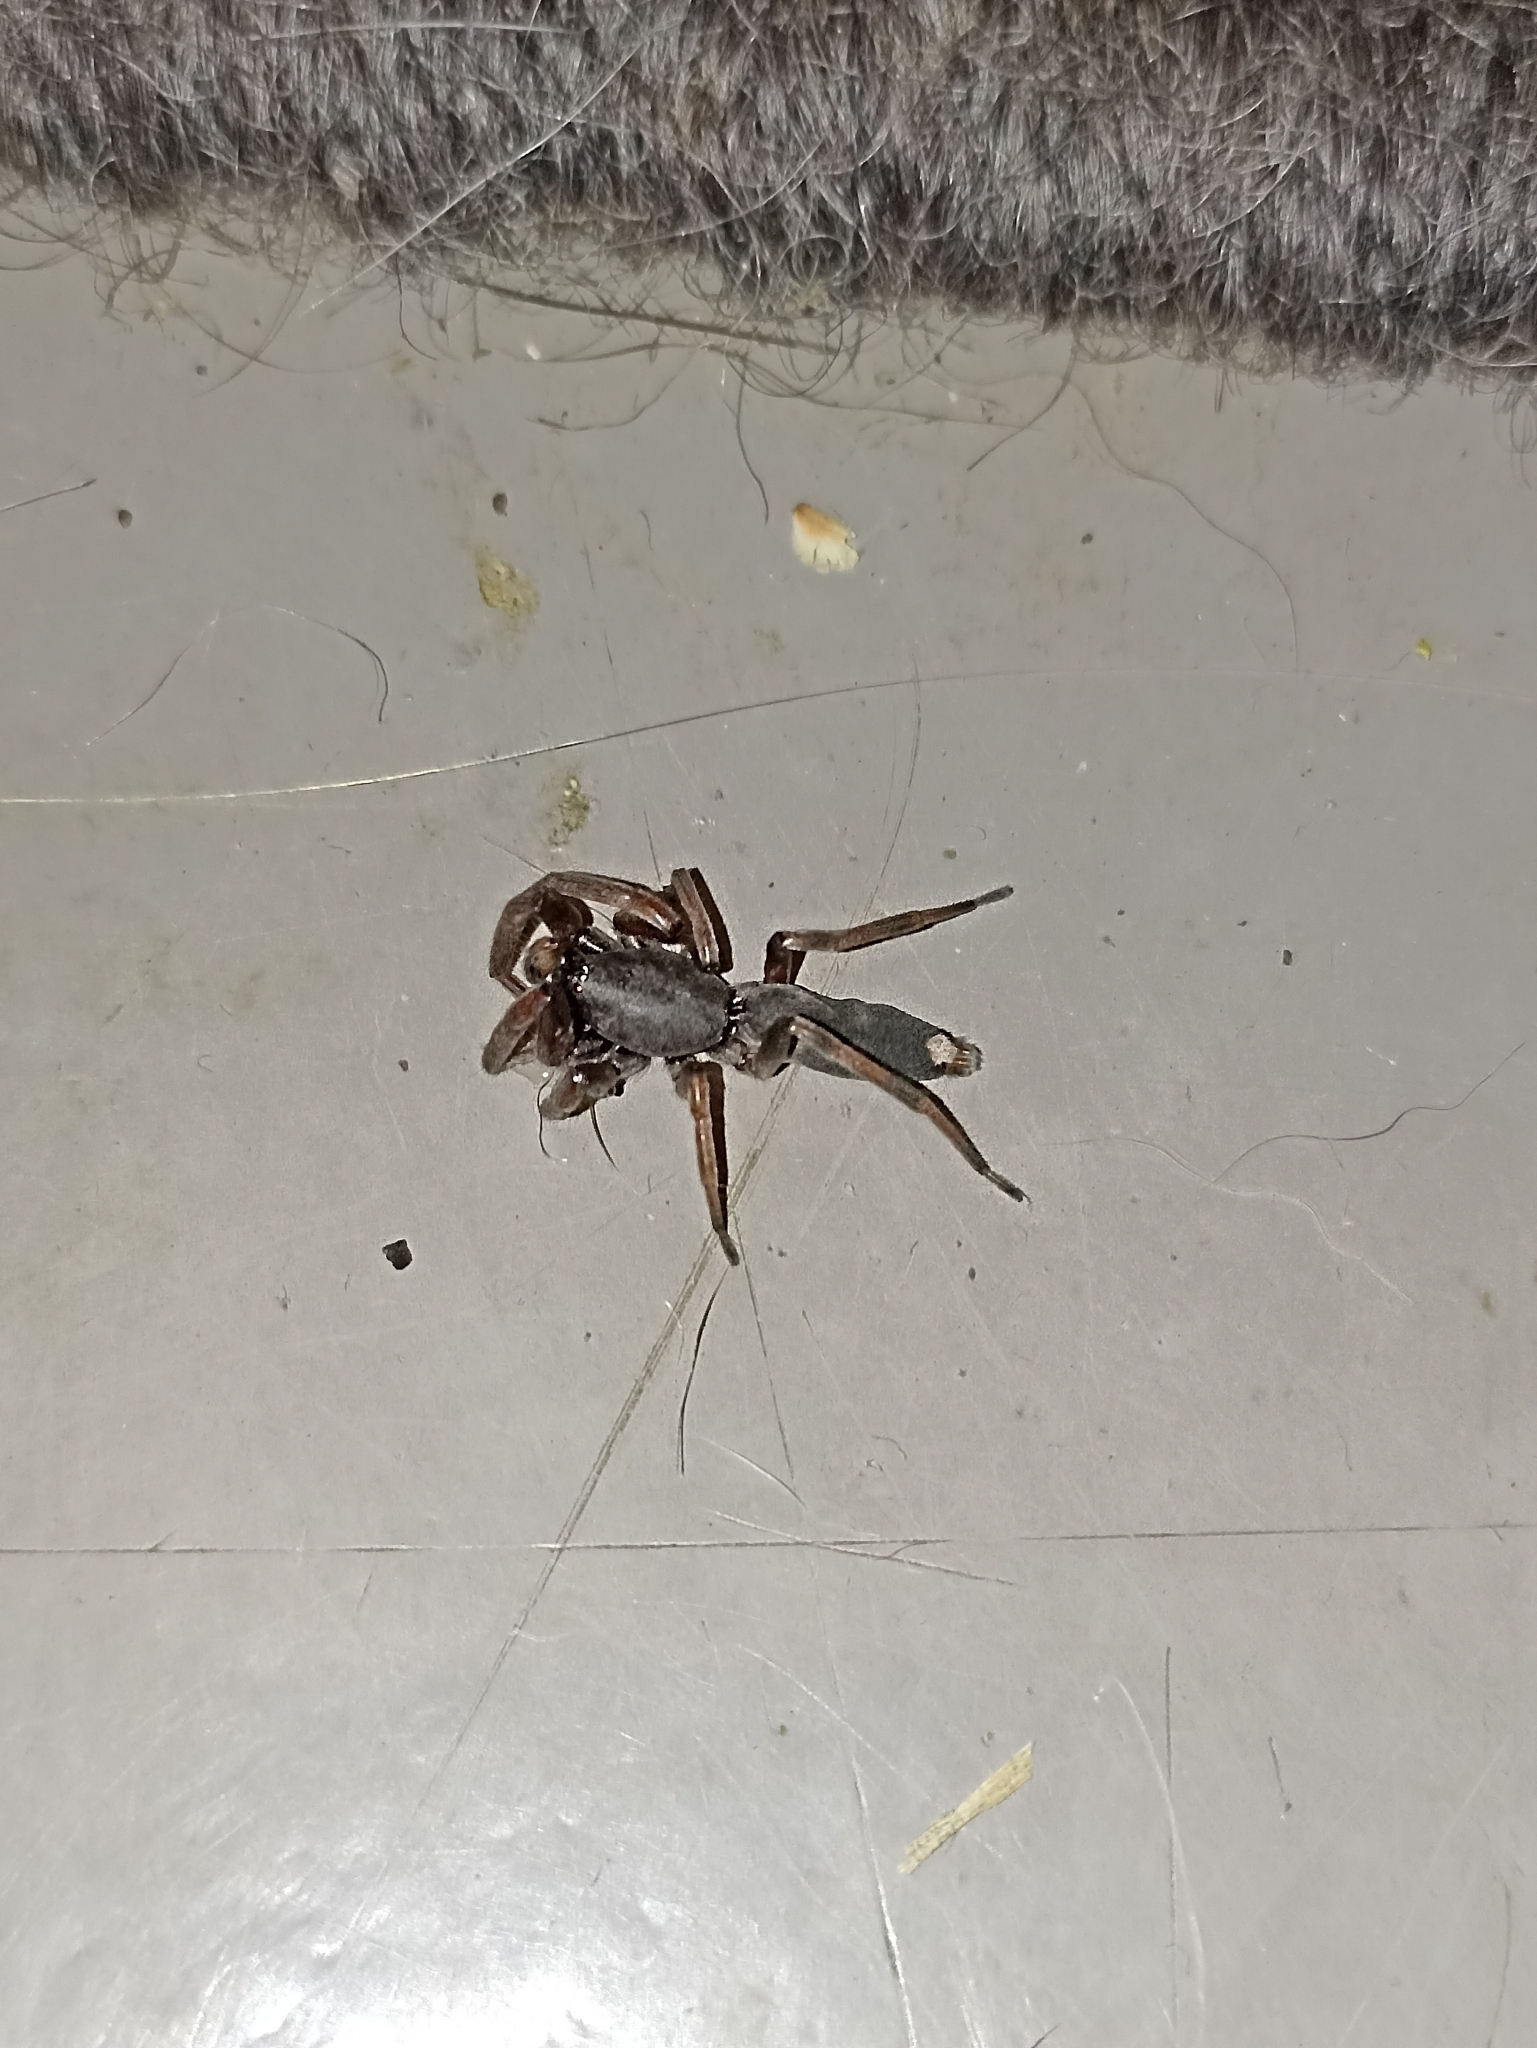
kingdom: Animalia
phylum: Arthropoda
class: Arachnida
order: Araneae
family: Lamponidae
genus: Lampona
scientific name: Lampona murina
